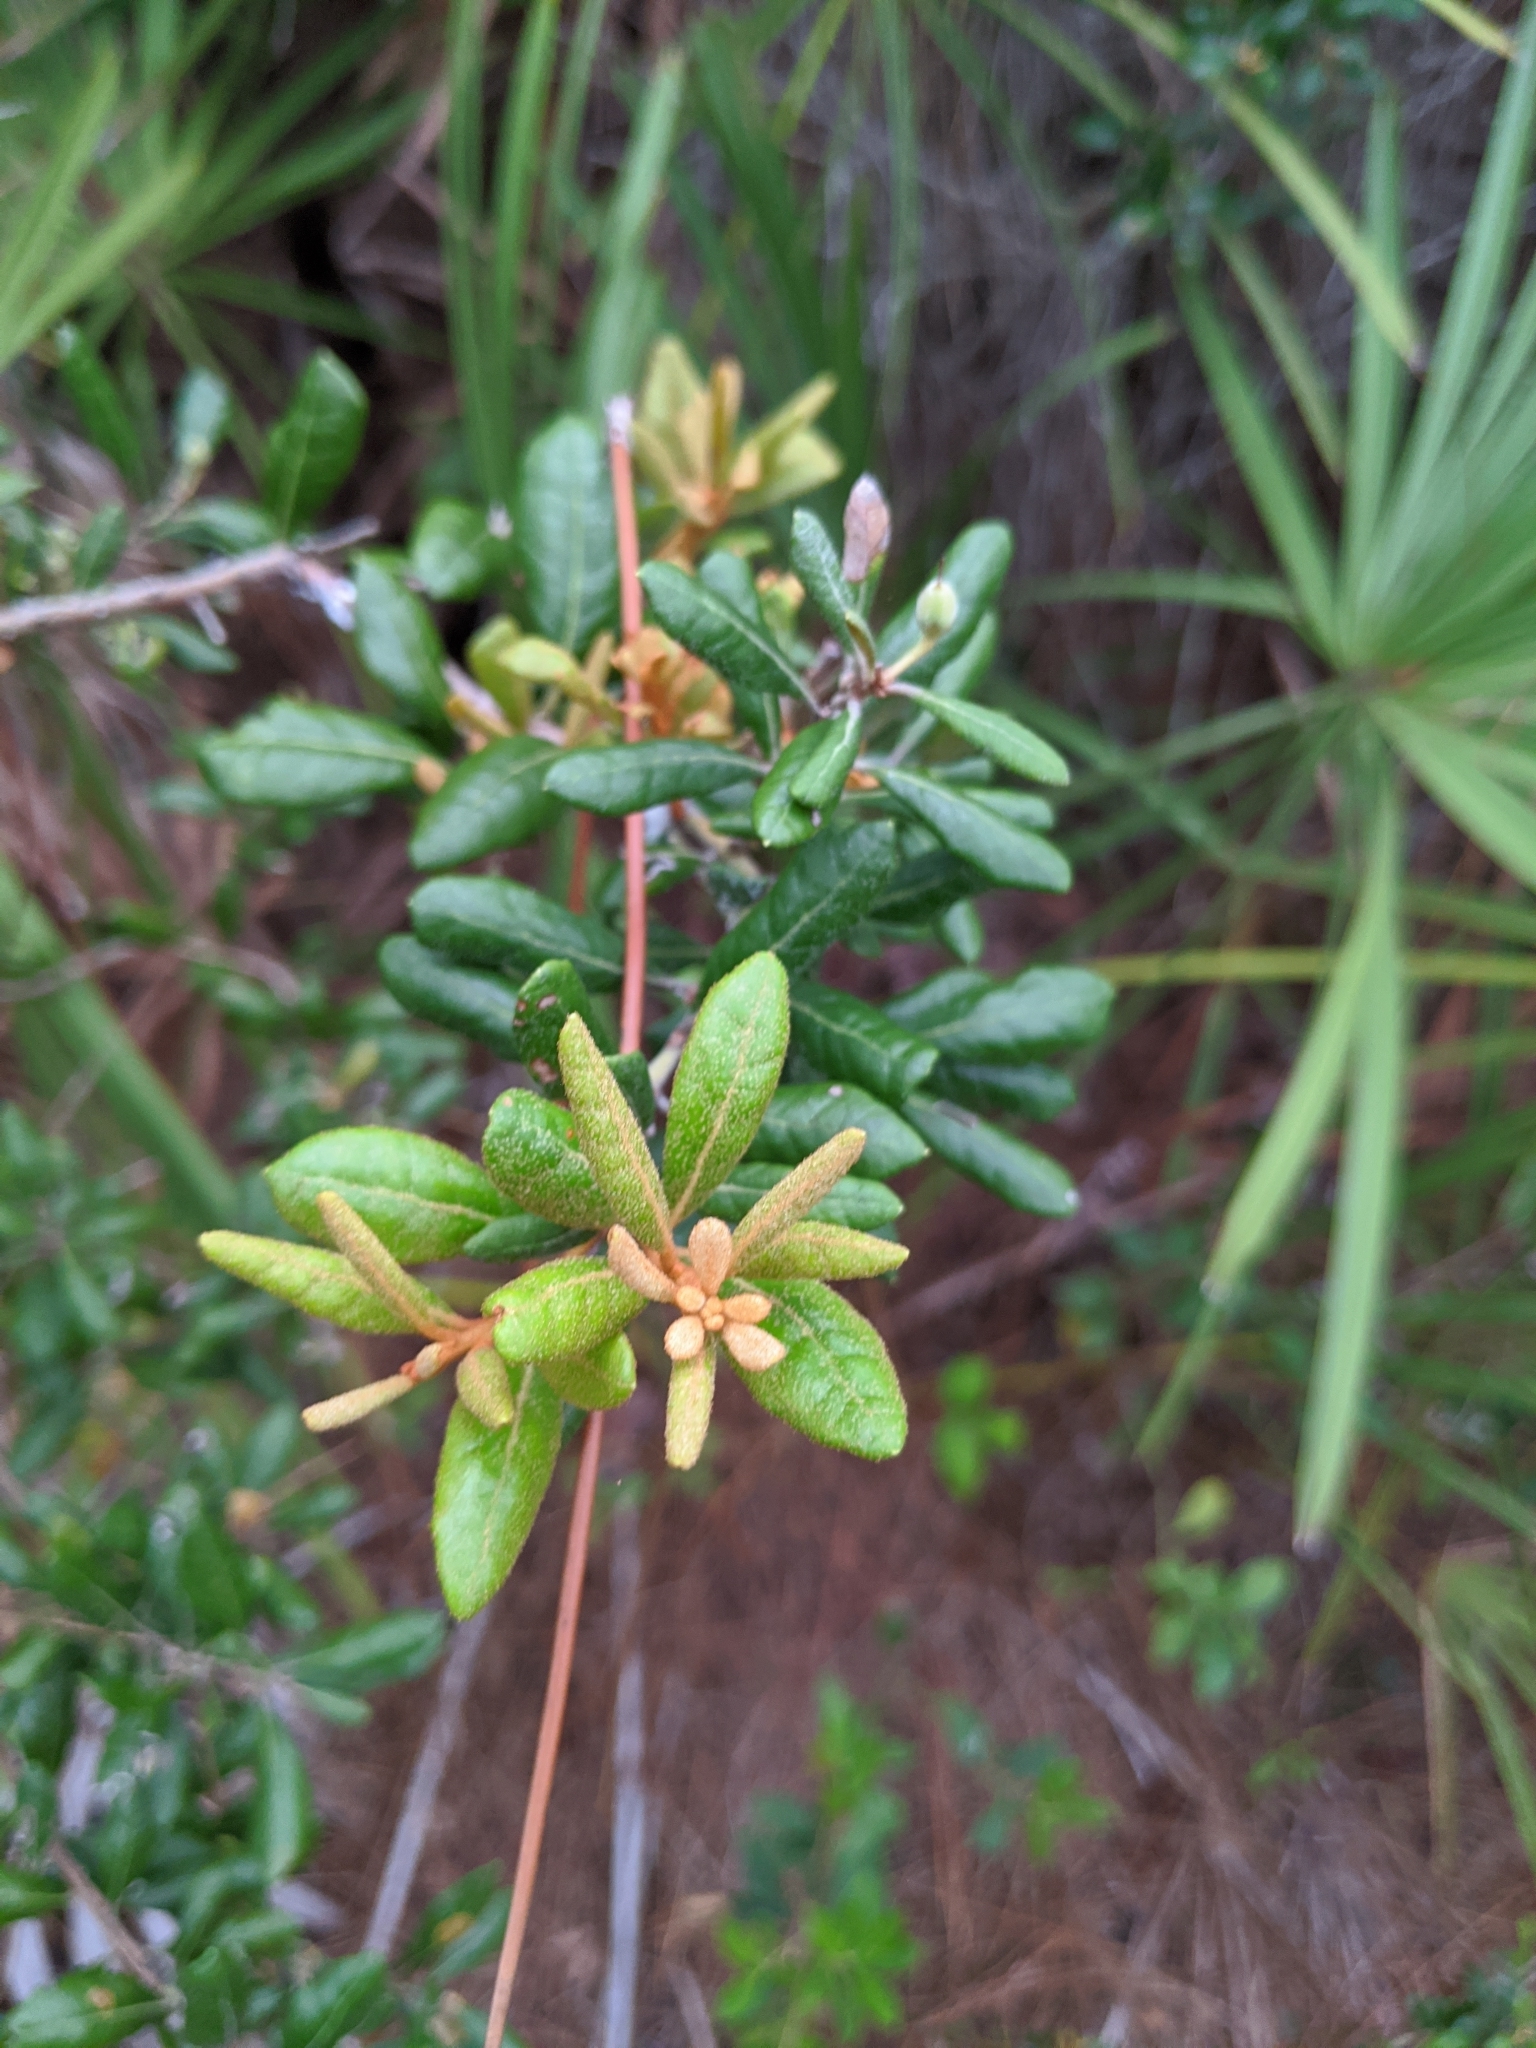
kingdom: Plantae
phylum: Tracheophyta
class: Magnoliopsida
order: Ericales
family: Ericaceae
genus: Lyonia
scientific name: Lyonia ferruginea
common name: Rusty lyonia
